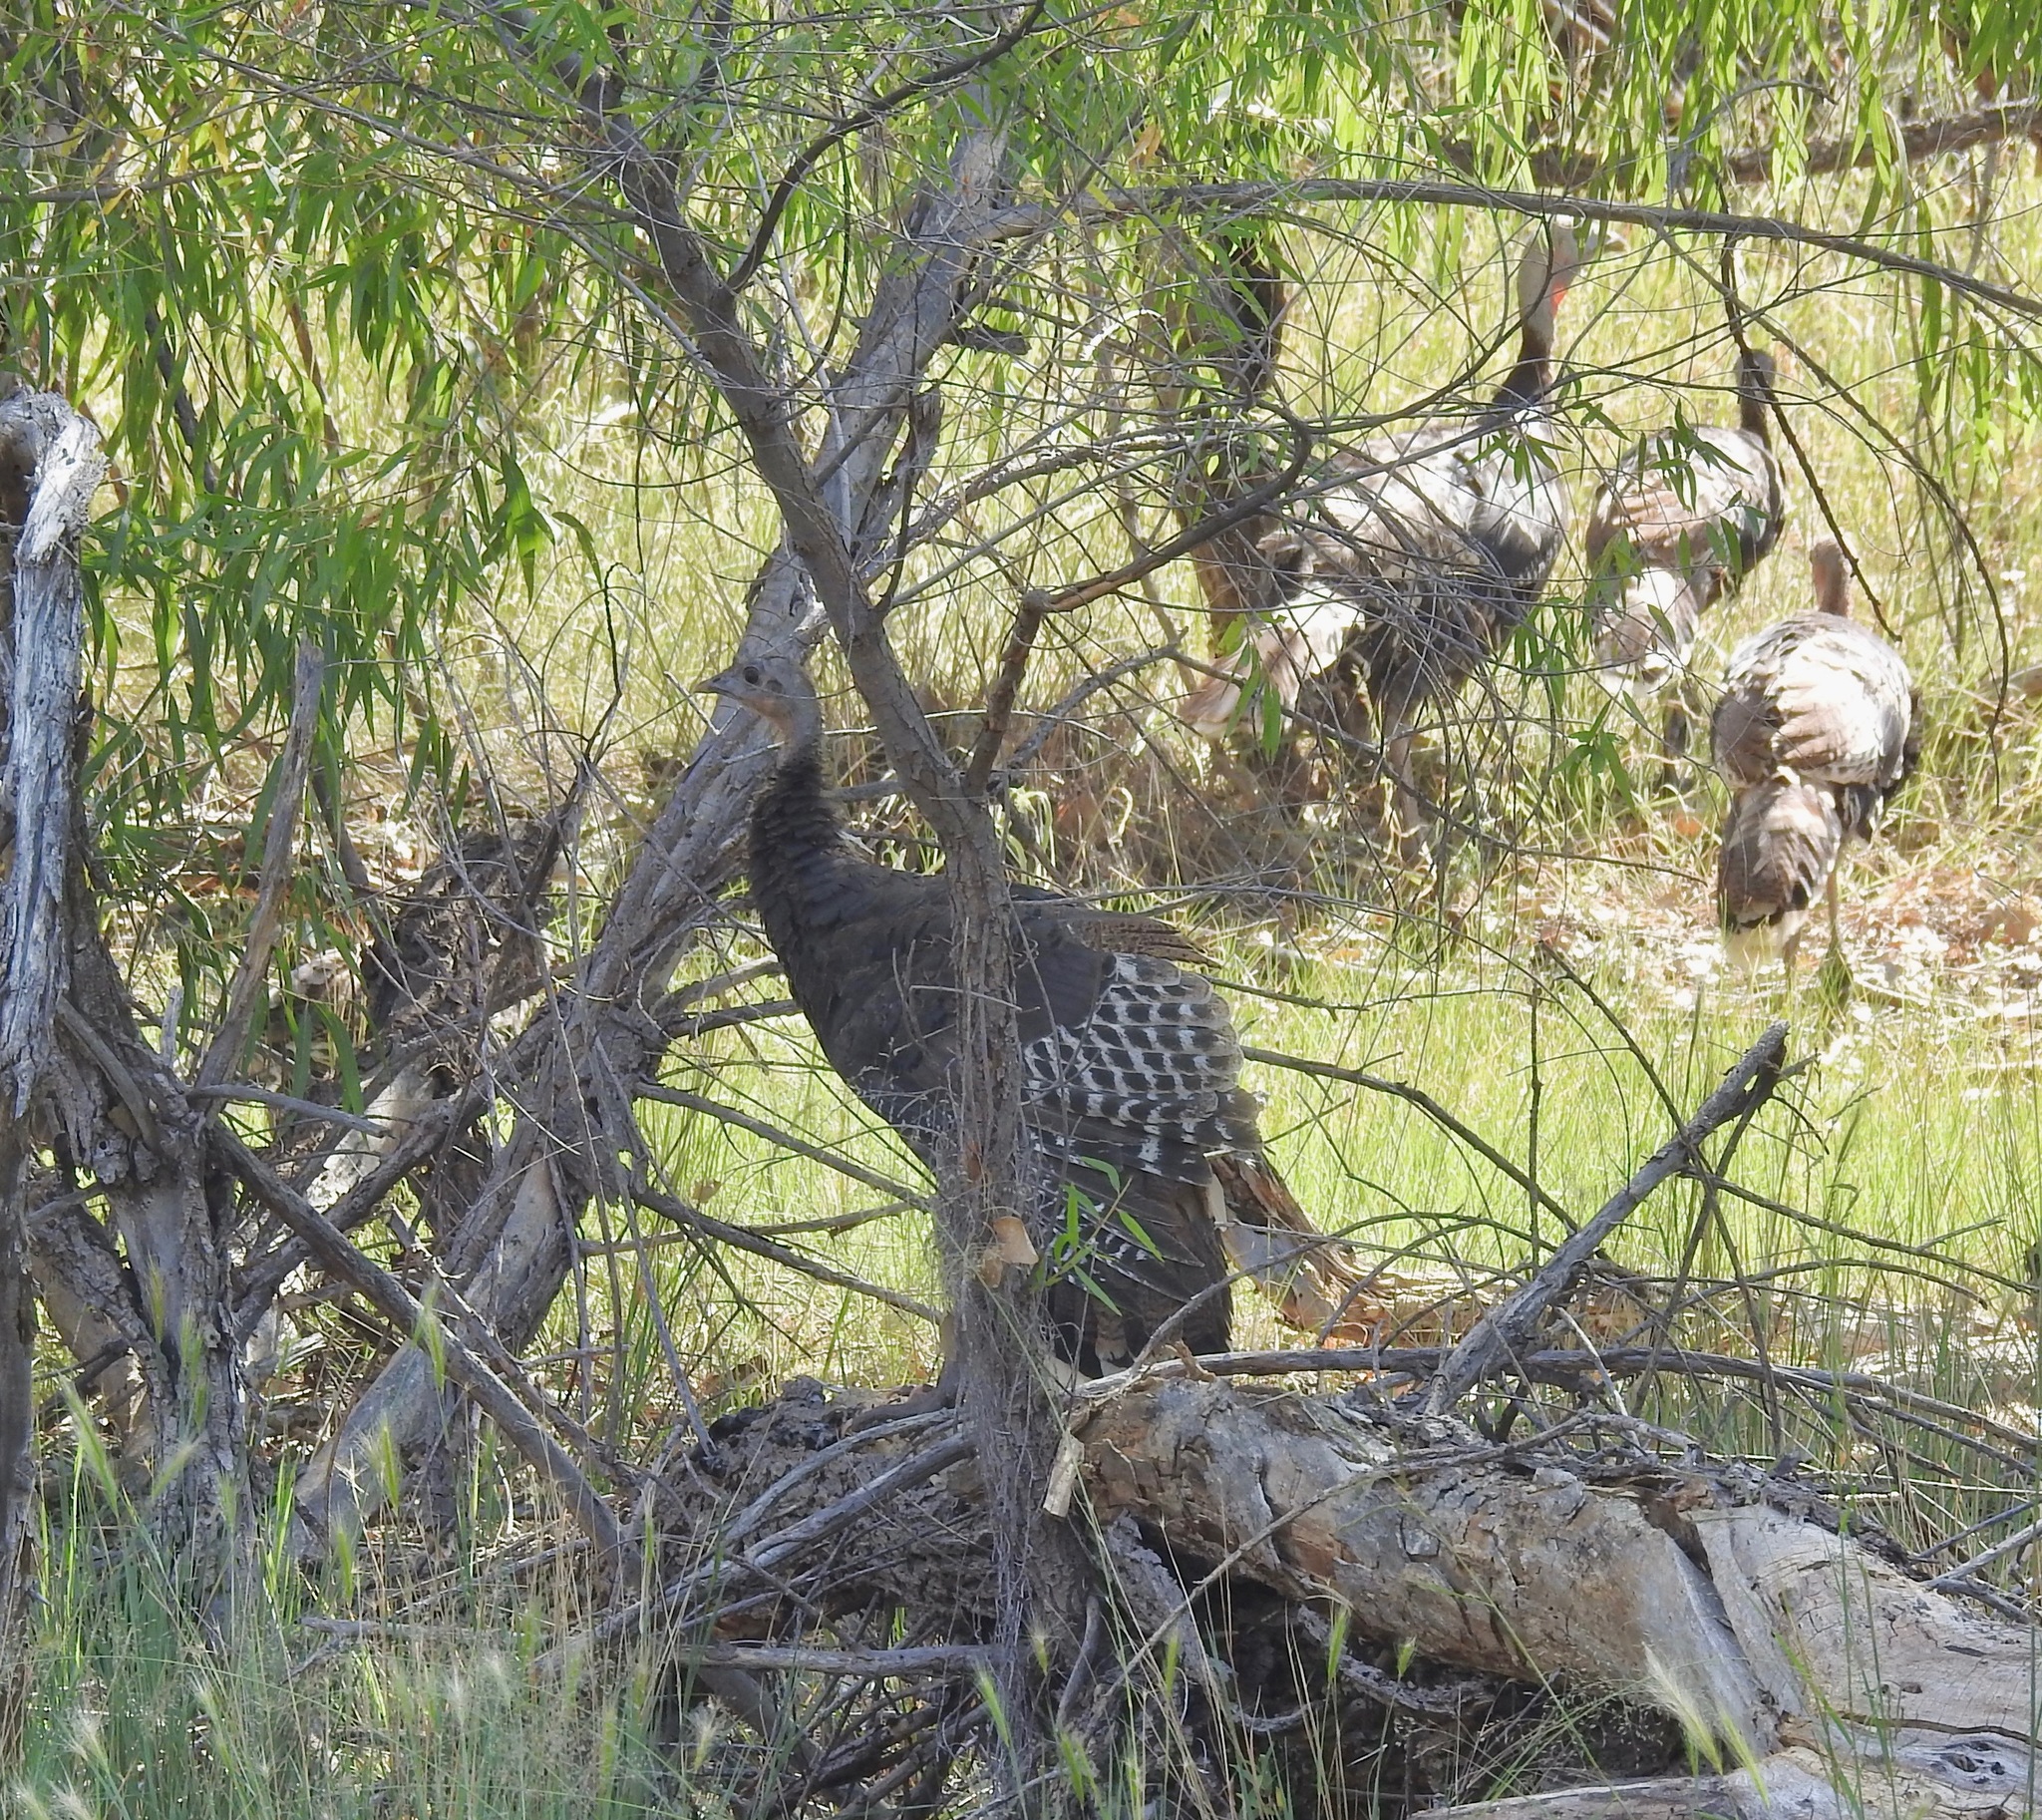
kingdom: Animalia
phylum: Chordata
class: Aves
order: Galliformes
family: Phasianidae
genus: Meleagris
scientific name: Meleagris gallopavo
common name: Wild turkey
